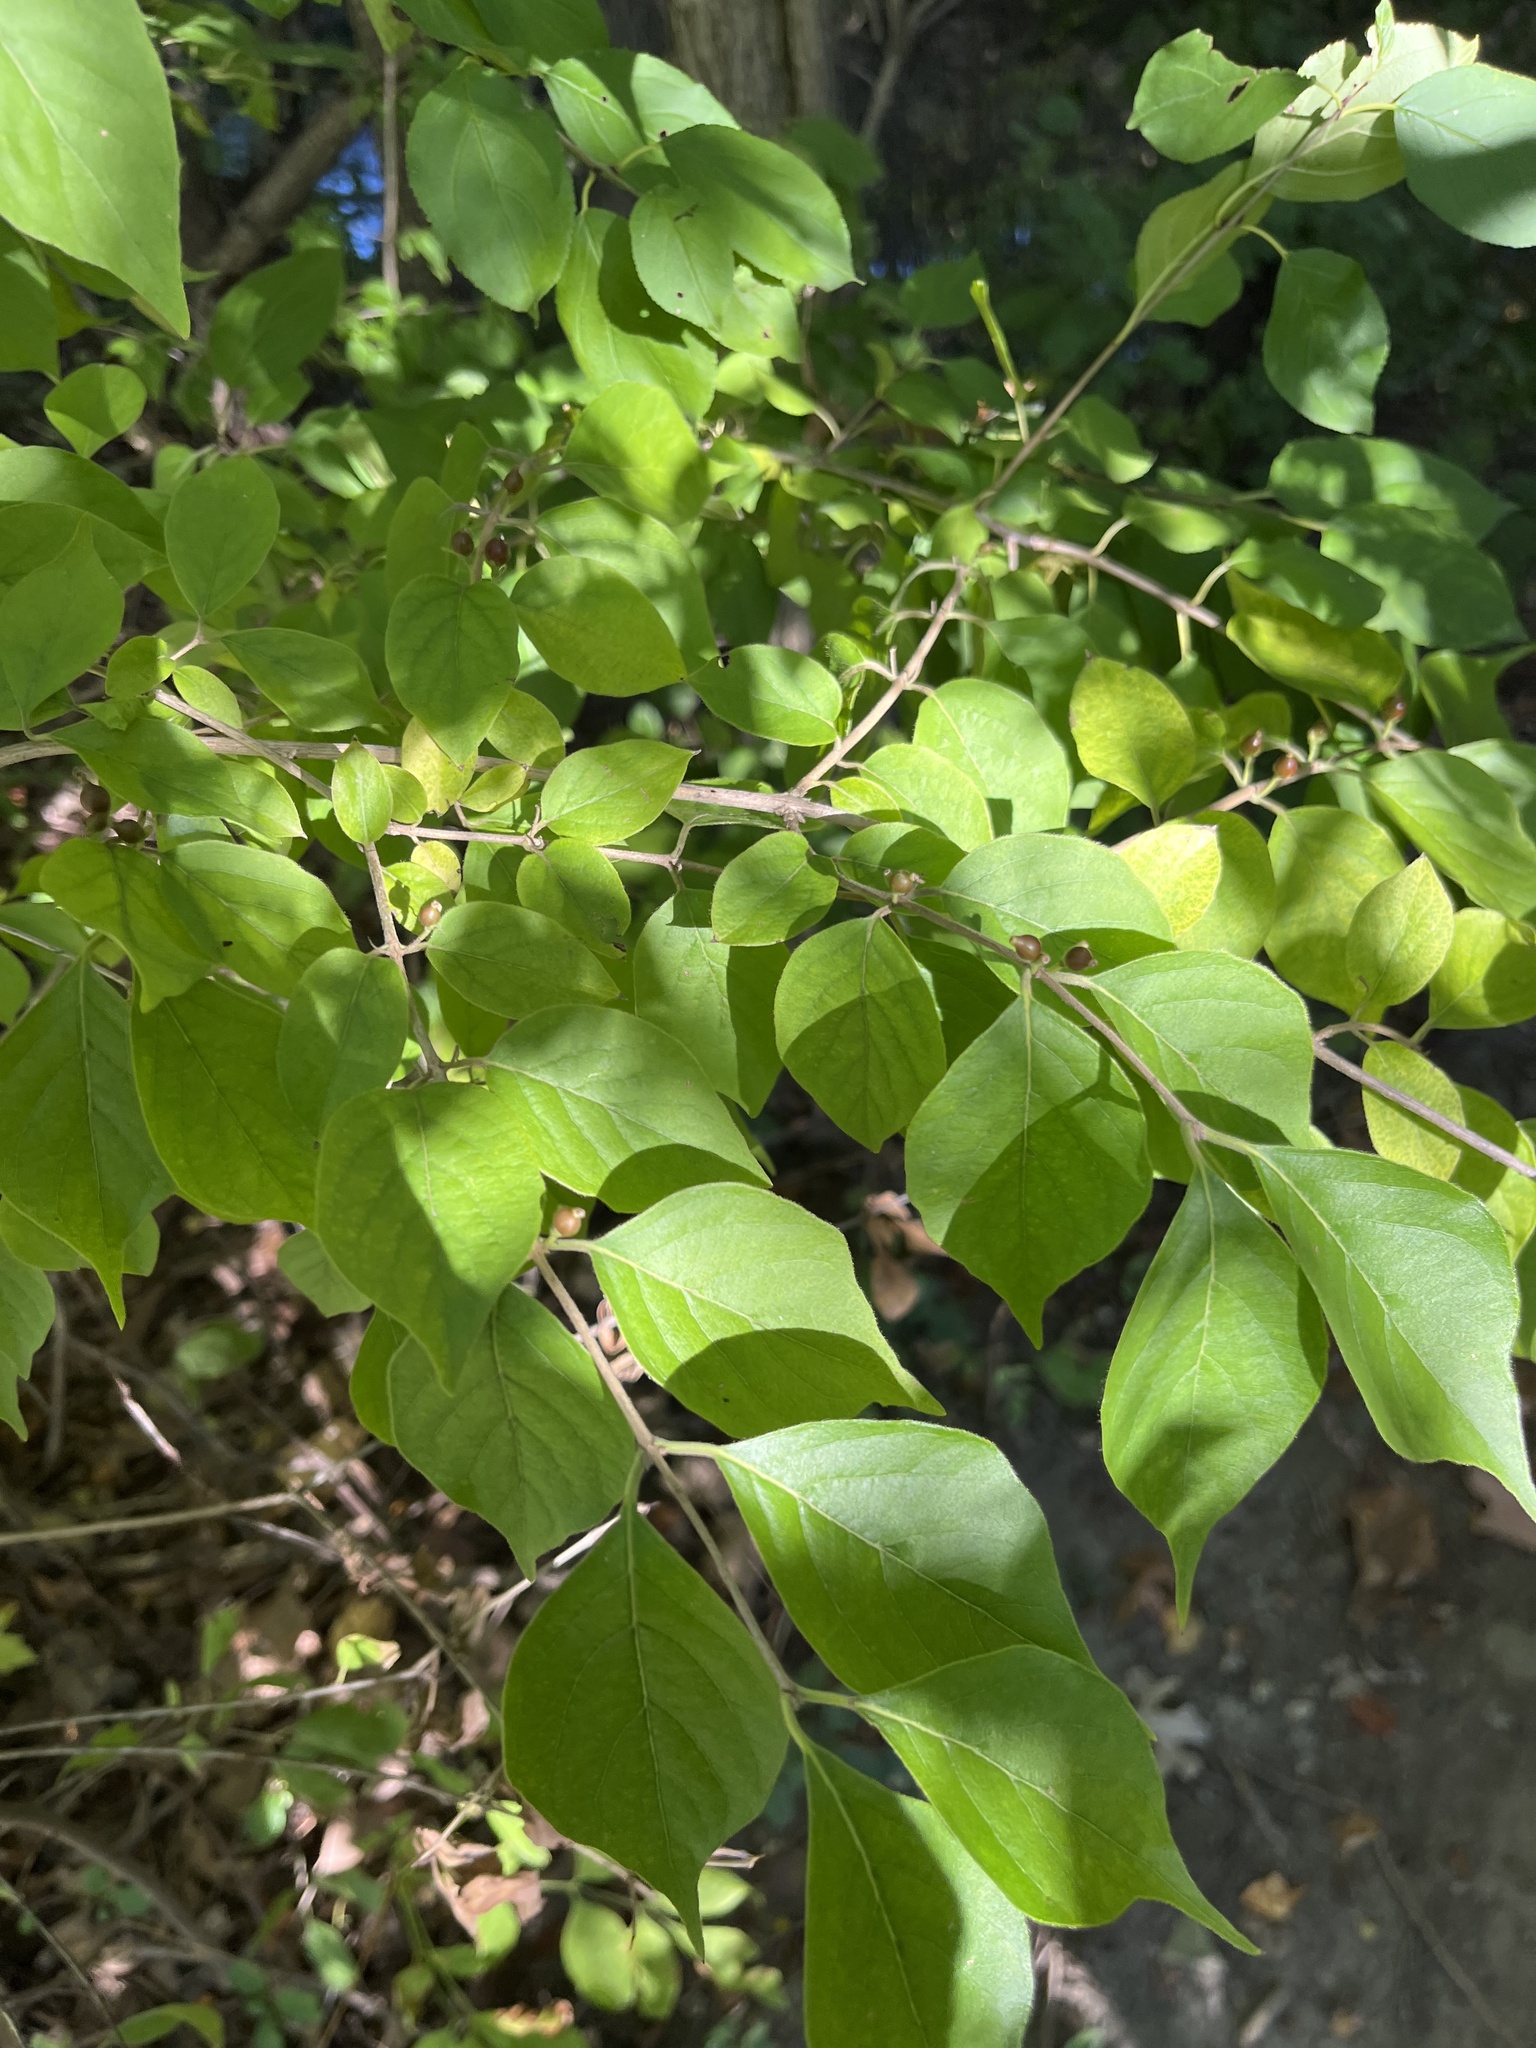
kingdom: Plantae
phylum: Tracheophyta
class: Magnoliopsida
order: Dipsacales
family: Caprifoliaceae
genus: Lonicera
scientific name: Lonicera maackii
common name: Amur honeysuckle
